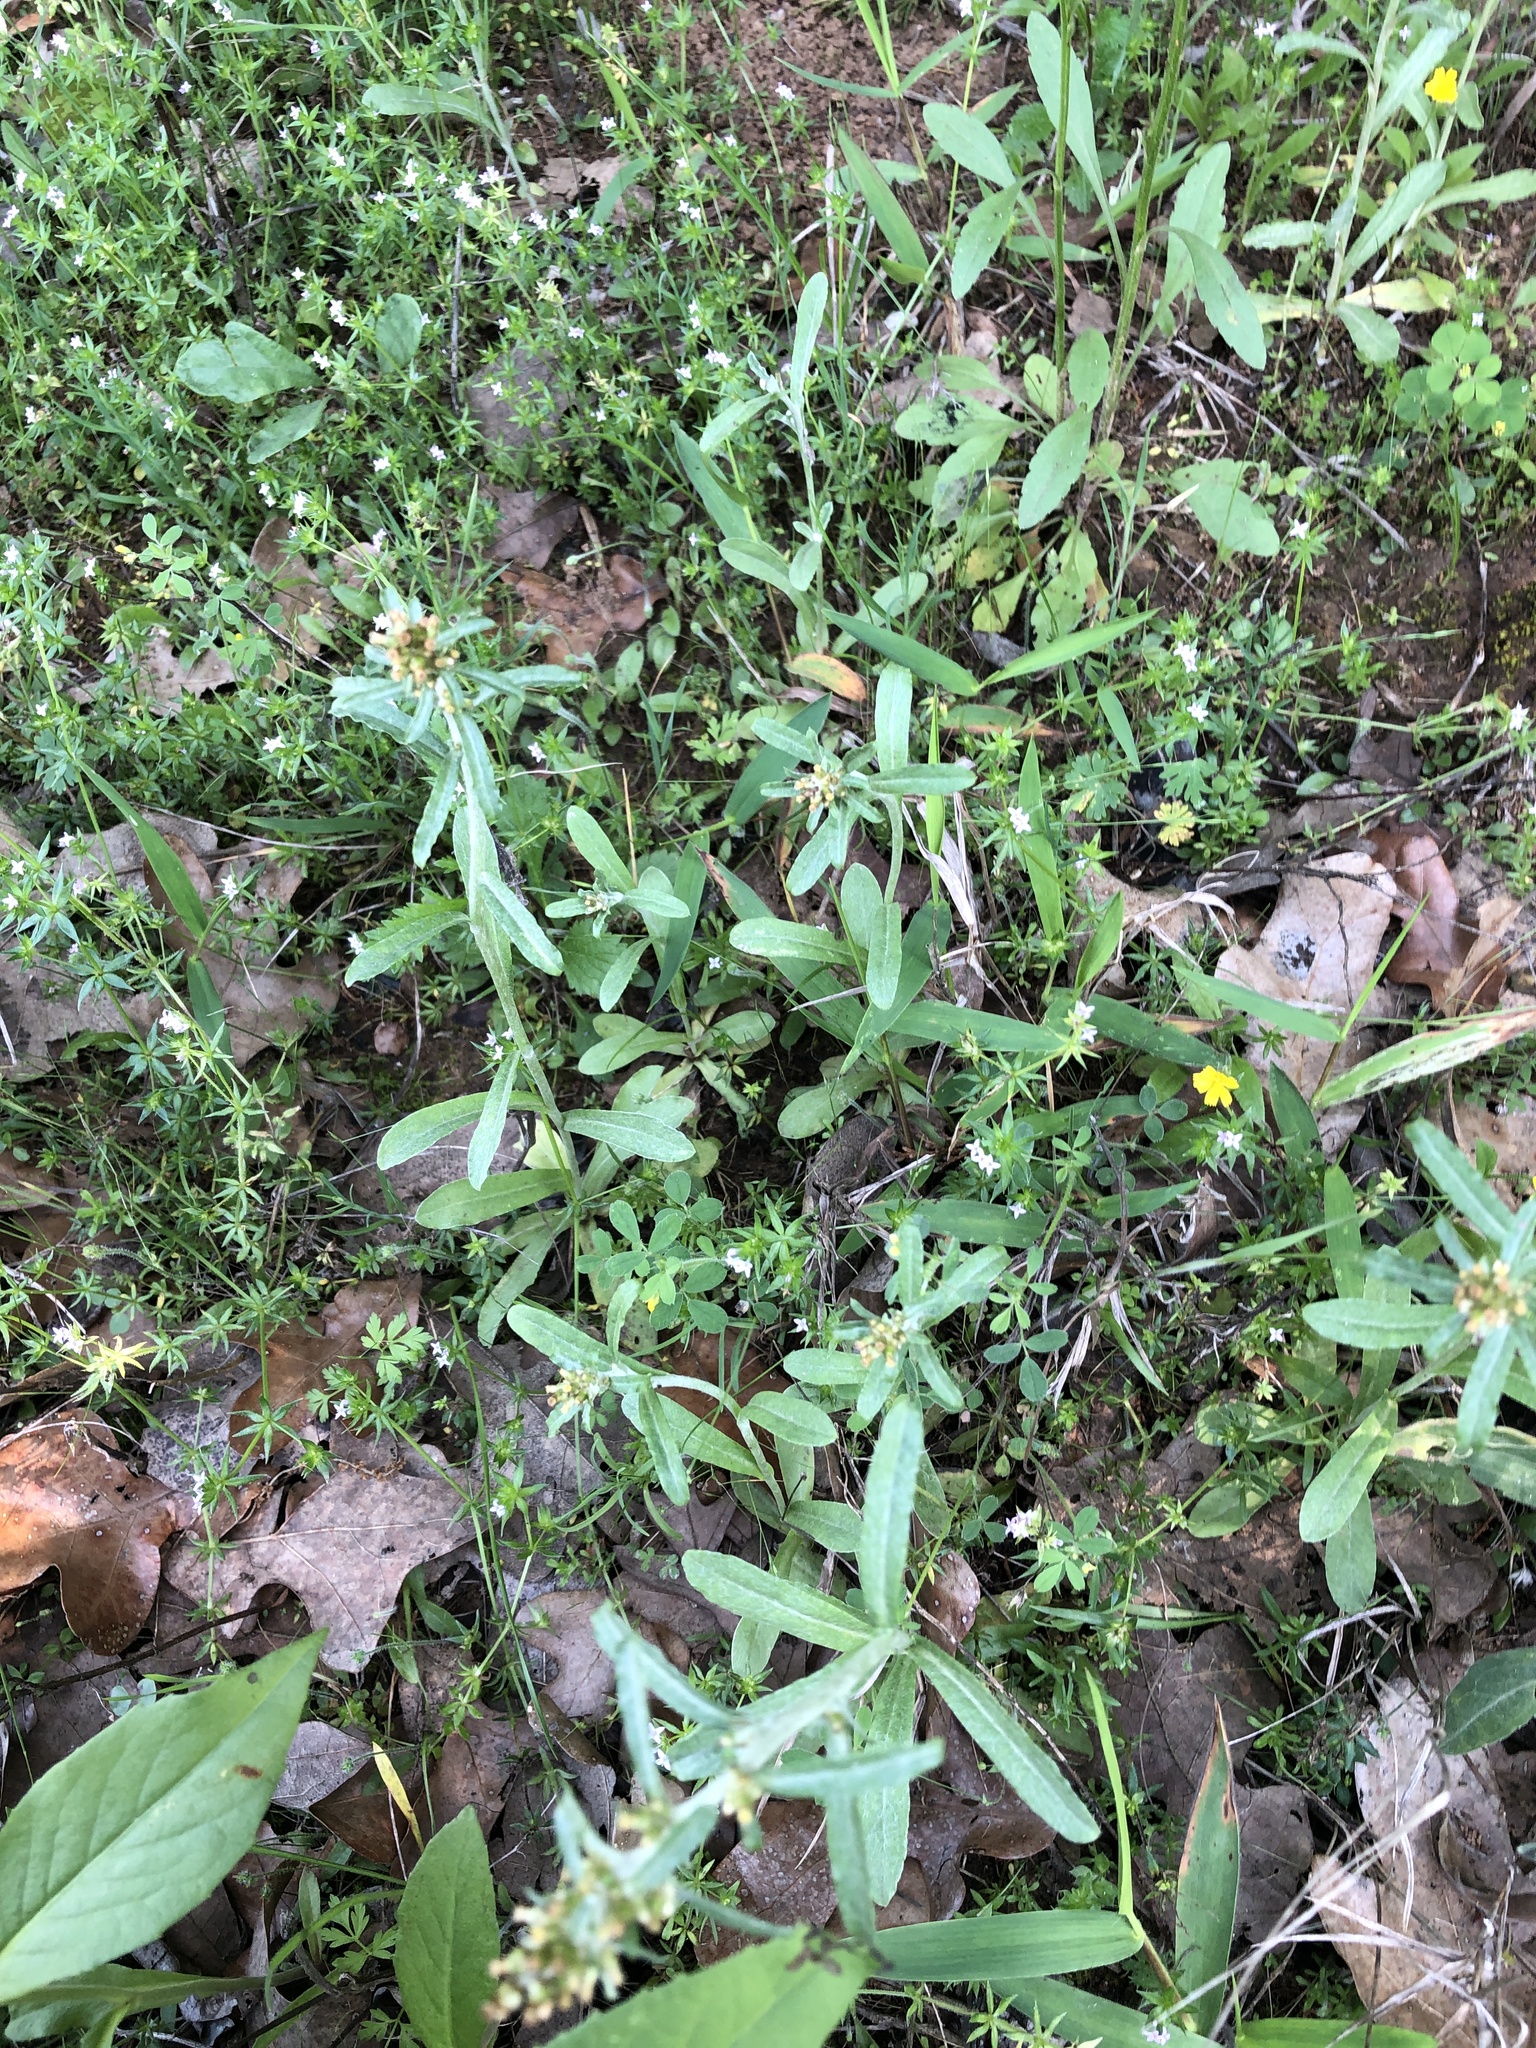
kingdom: Plantae
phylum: Tracheophyta
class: Magnoliopsida
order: Asterales
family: Asteraceae
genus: Gamochaeta
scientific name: Gamochaeta pensylvanica
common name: Pennsylvania everlasting
